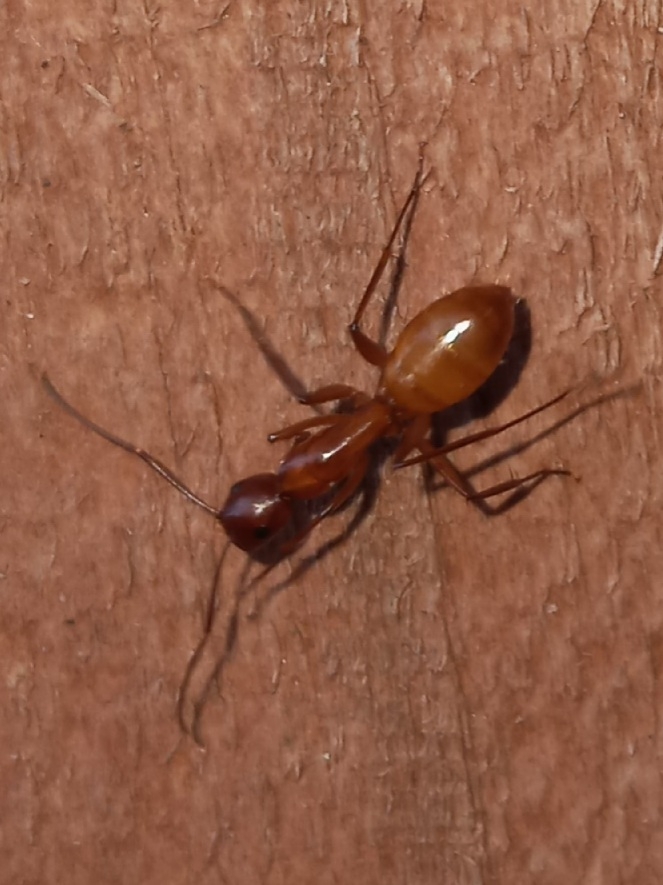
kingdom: Animalia
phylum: Arthropoda
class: Insecta
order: Hymenoptera
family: Formicidae
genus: Camponotus
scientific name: Camponotus castaneus
